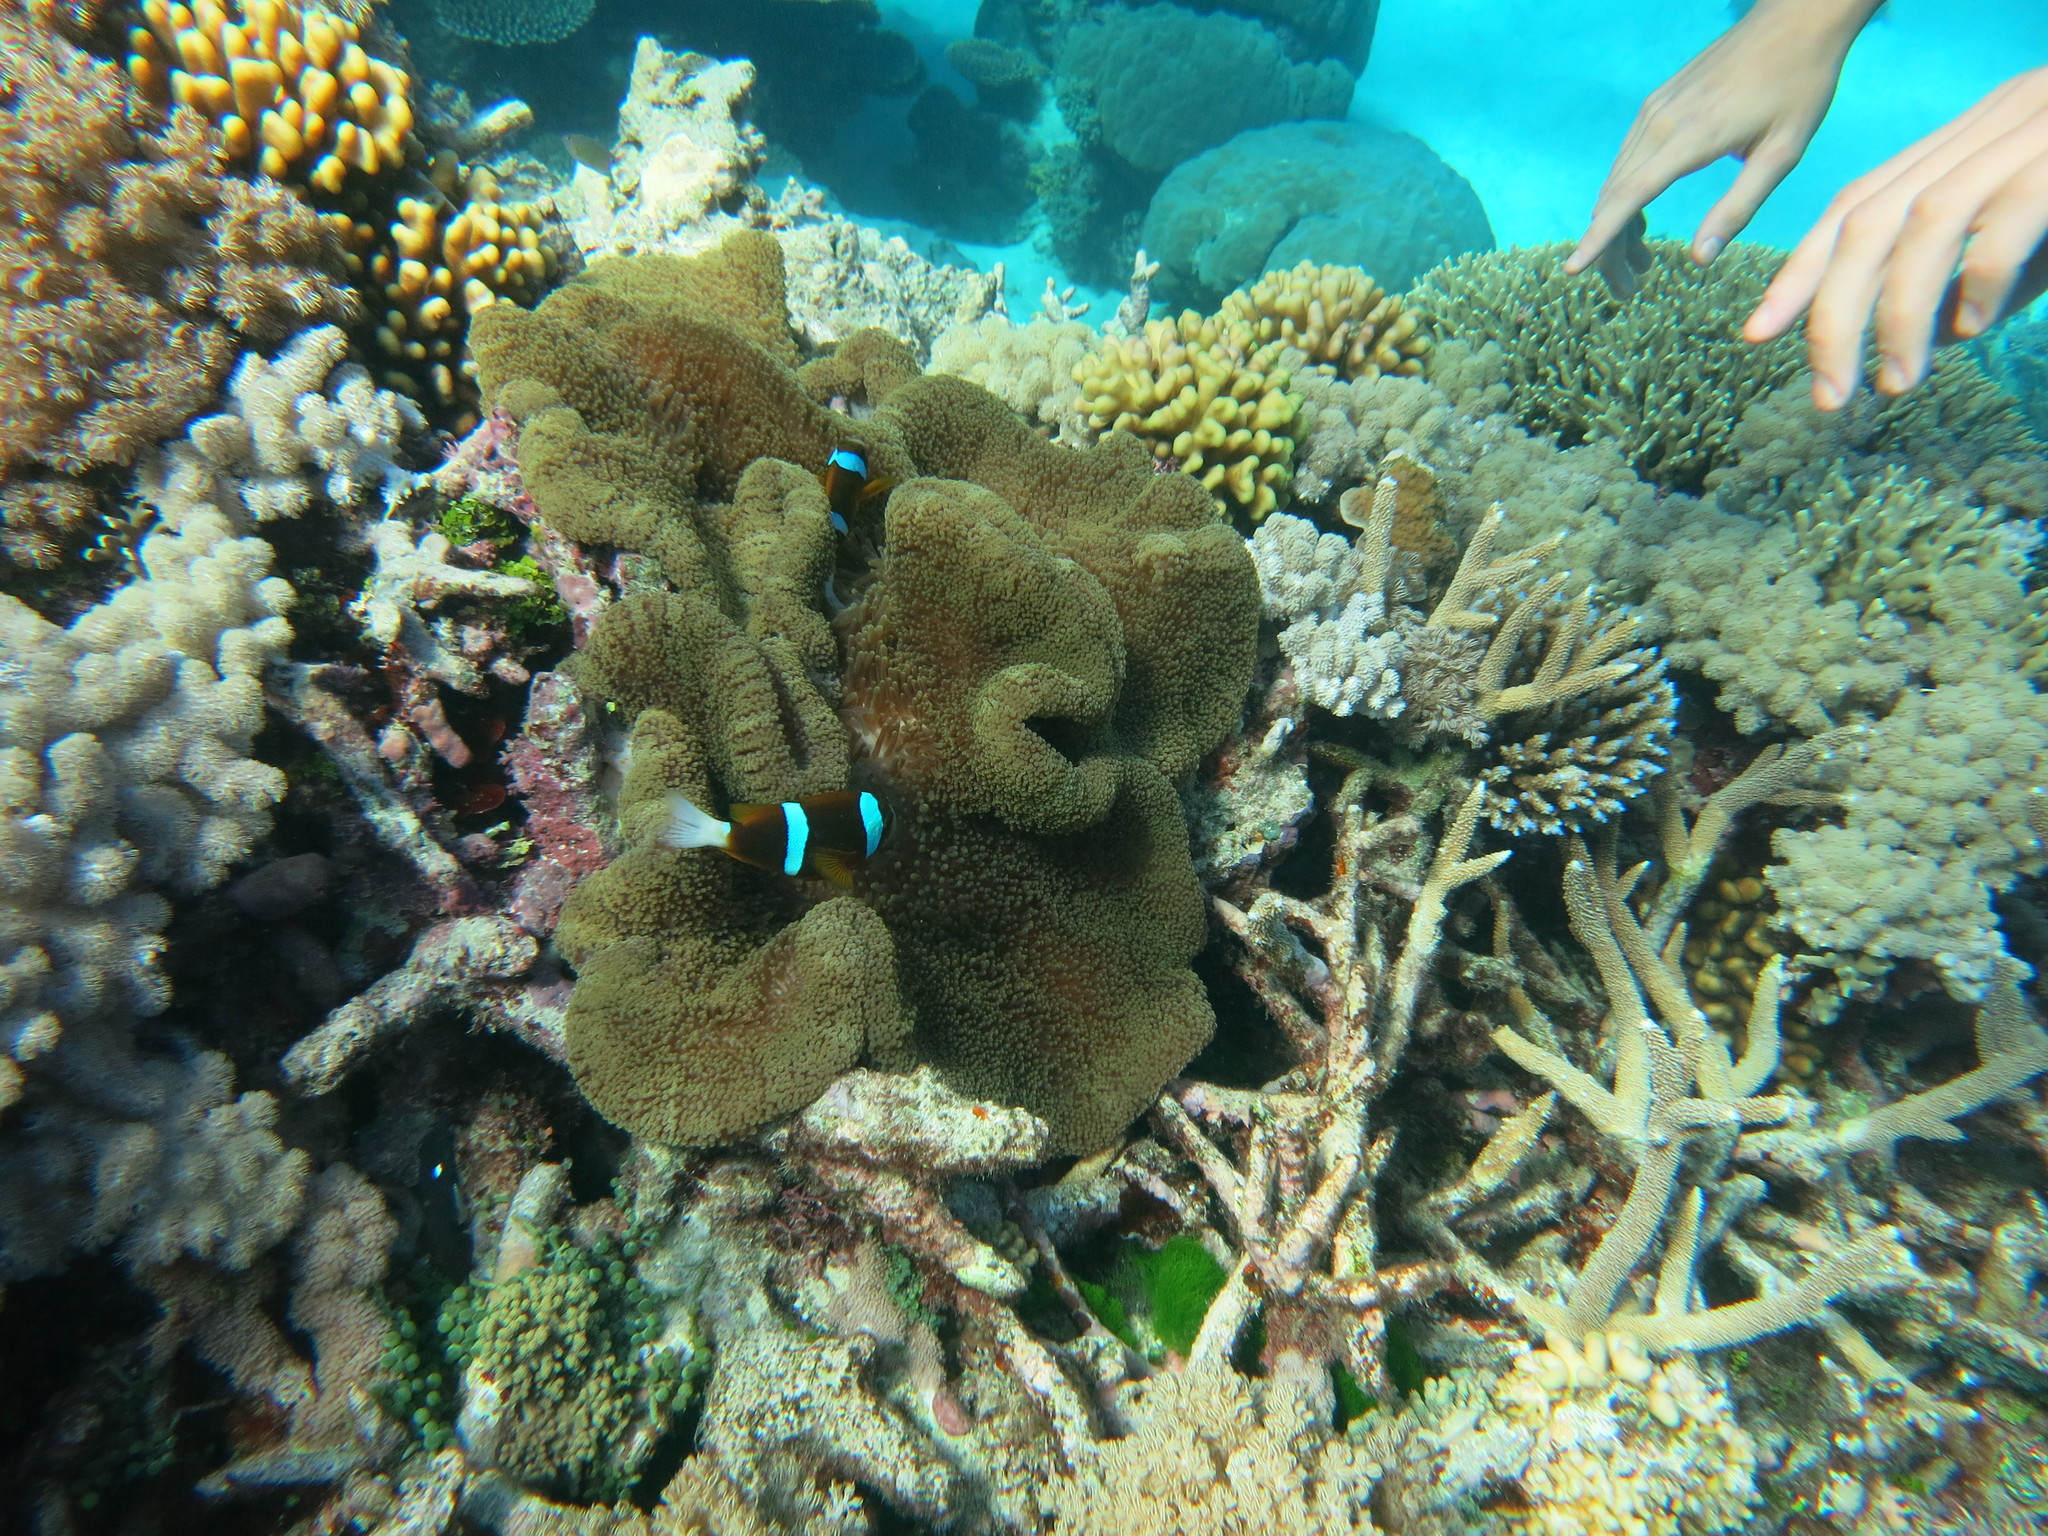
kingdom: Animalia
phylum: Chordata
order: Perciformes
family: Pomacentridae
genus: Amphiprion
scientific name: Amphiprion clarkii
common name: Clark's anemonefish
